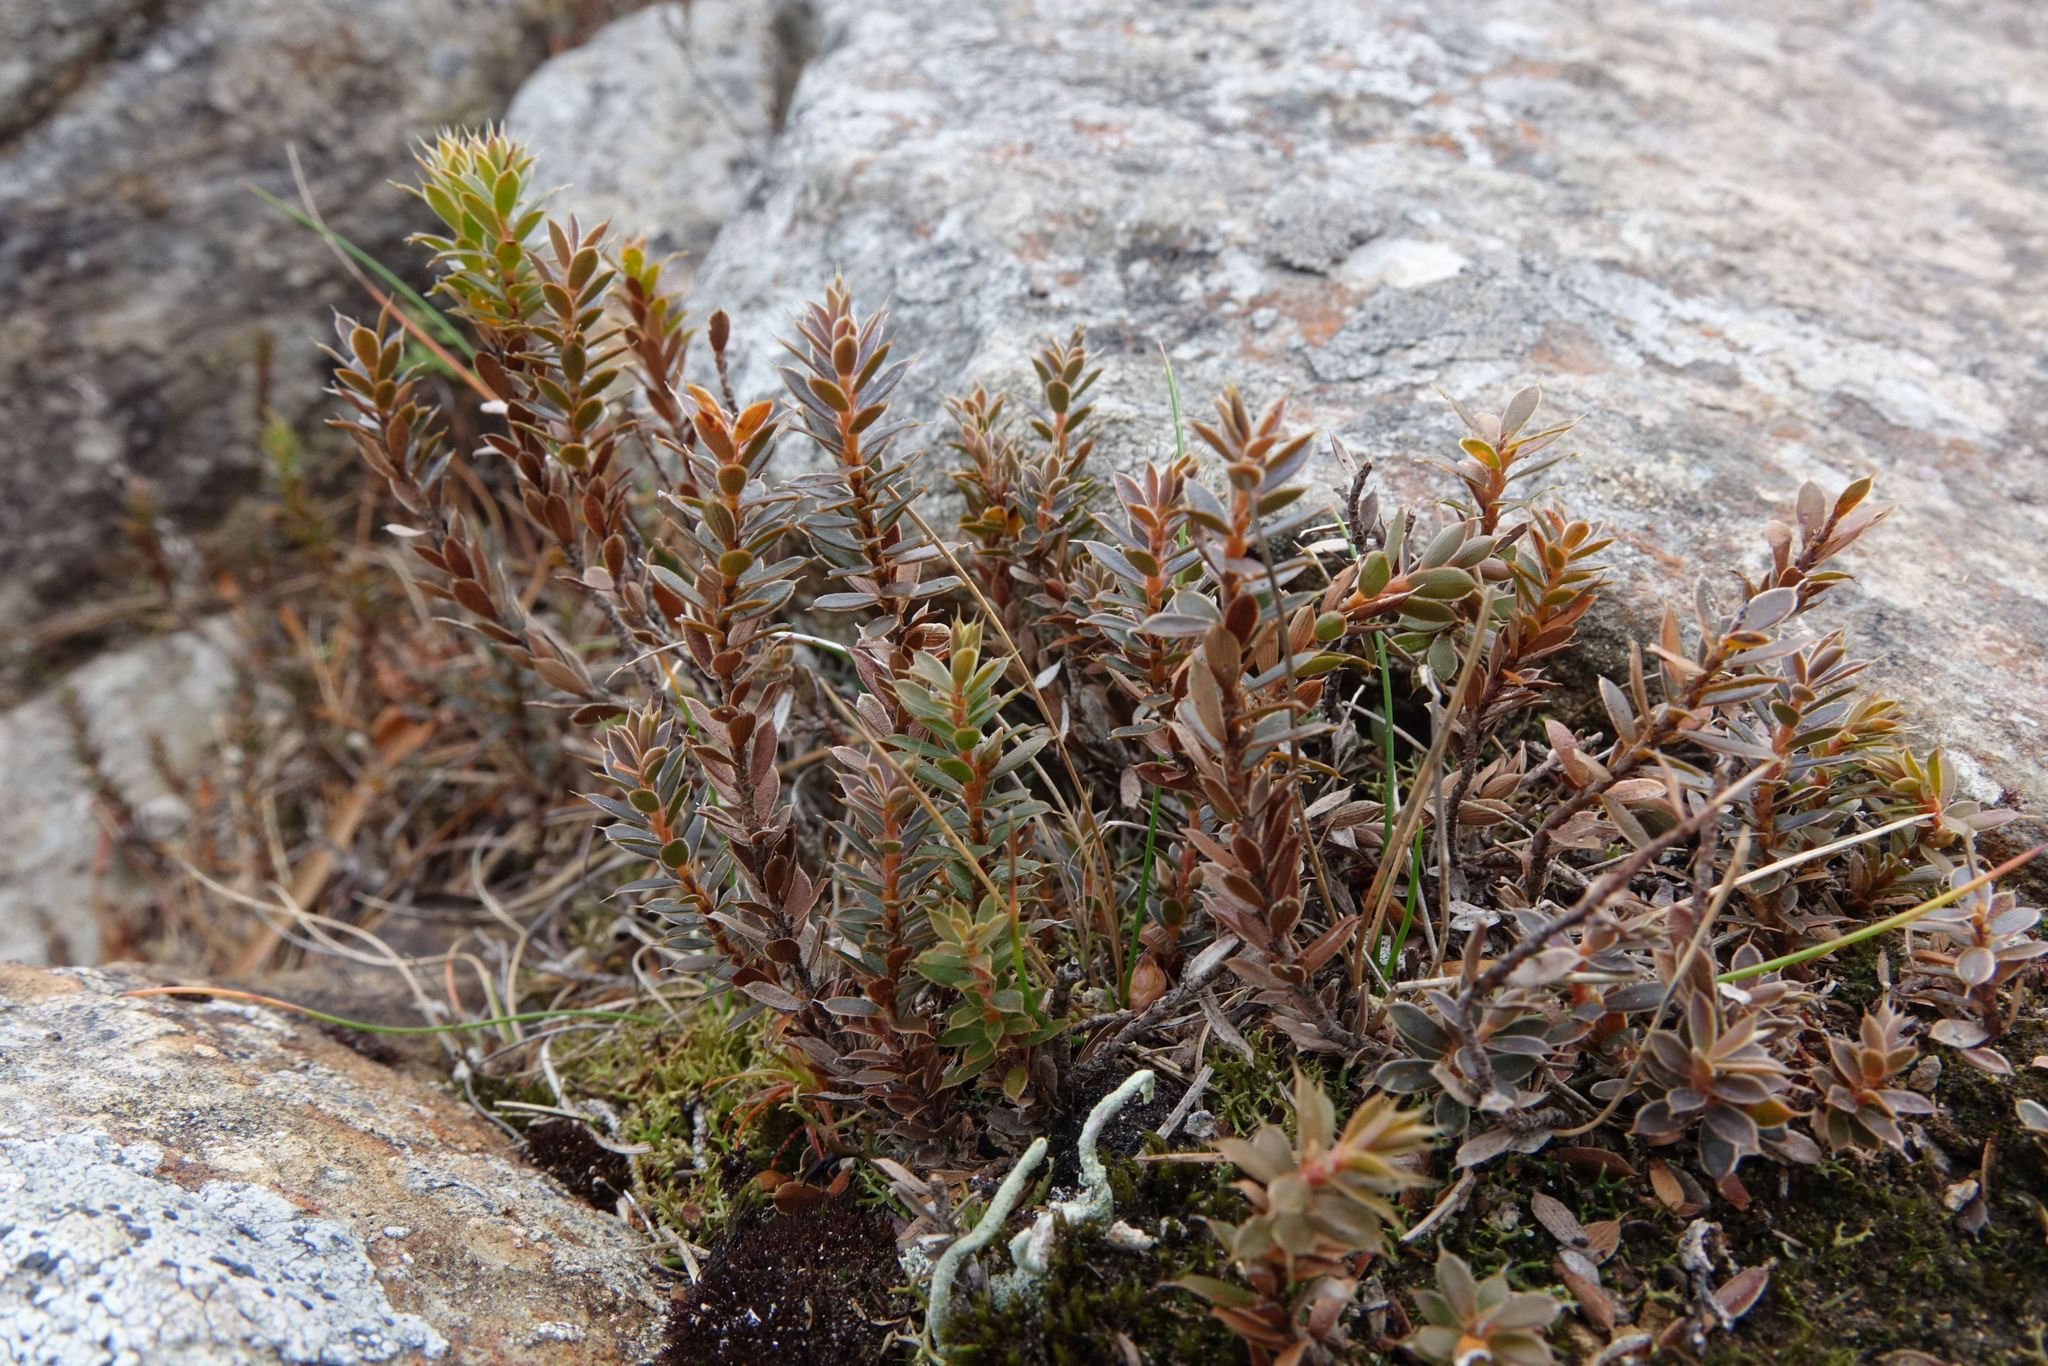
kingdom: Plantae
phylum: Tracheophyta
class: Magnoliopsida
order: Ericales
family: Ericaceae
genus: Styphelia
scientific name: Styphelia nesophila
